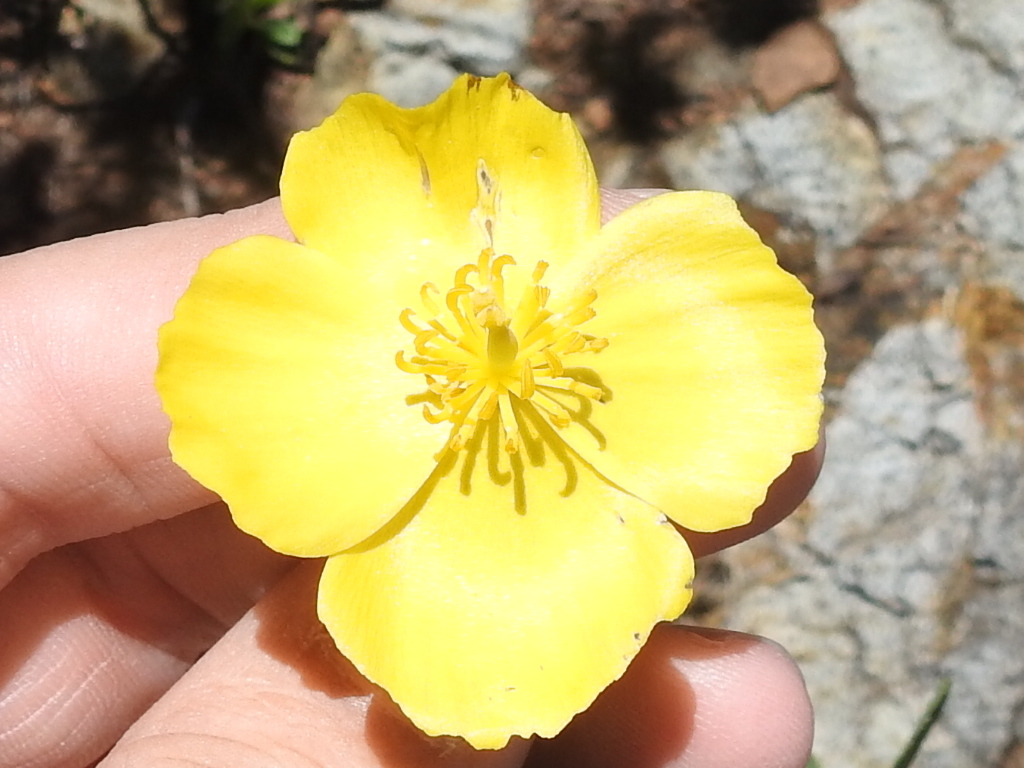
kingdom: Plantae
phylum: Tracheophyta
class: Magnoliopsida
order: Ranunculales
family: Papaveraceae
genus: Dendromecon
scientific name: Dendromecon rigida
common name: Tree poppy
